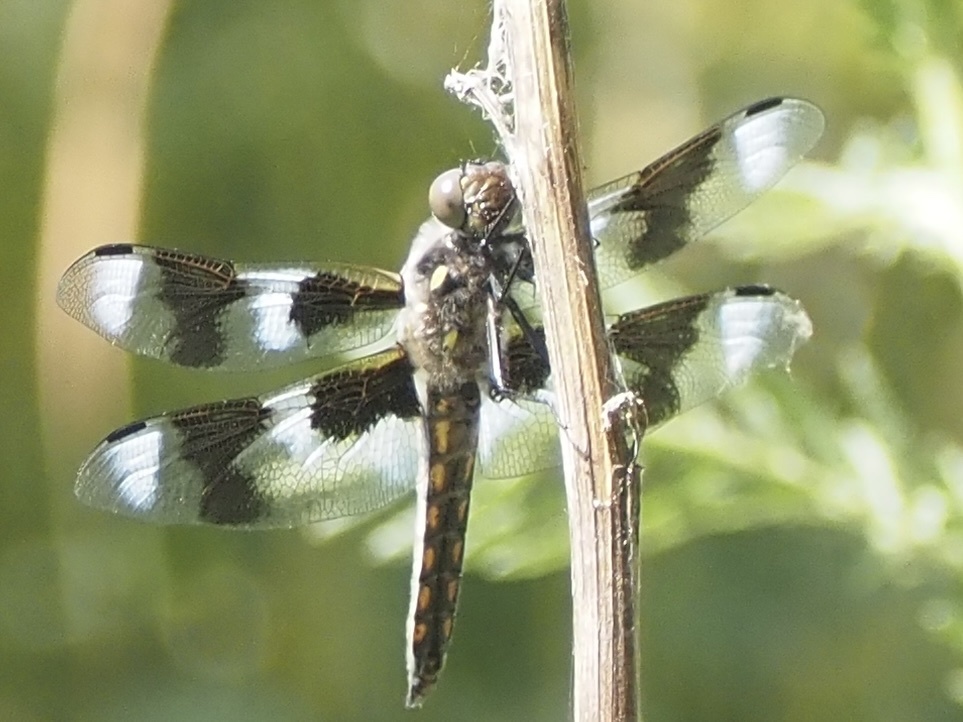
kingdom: Animalia
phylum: Arthropoda
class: Insecta
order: Odonata
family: Libellulidae
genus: Libellula
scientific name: Libellula forensis
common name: Eight-spotted skimmer
